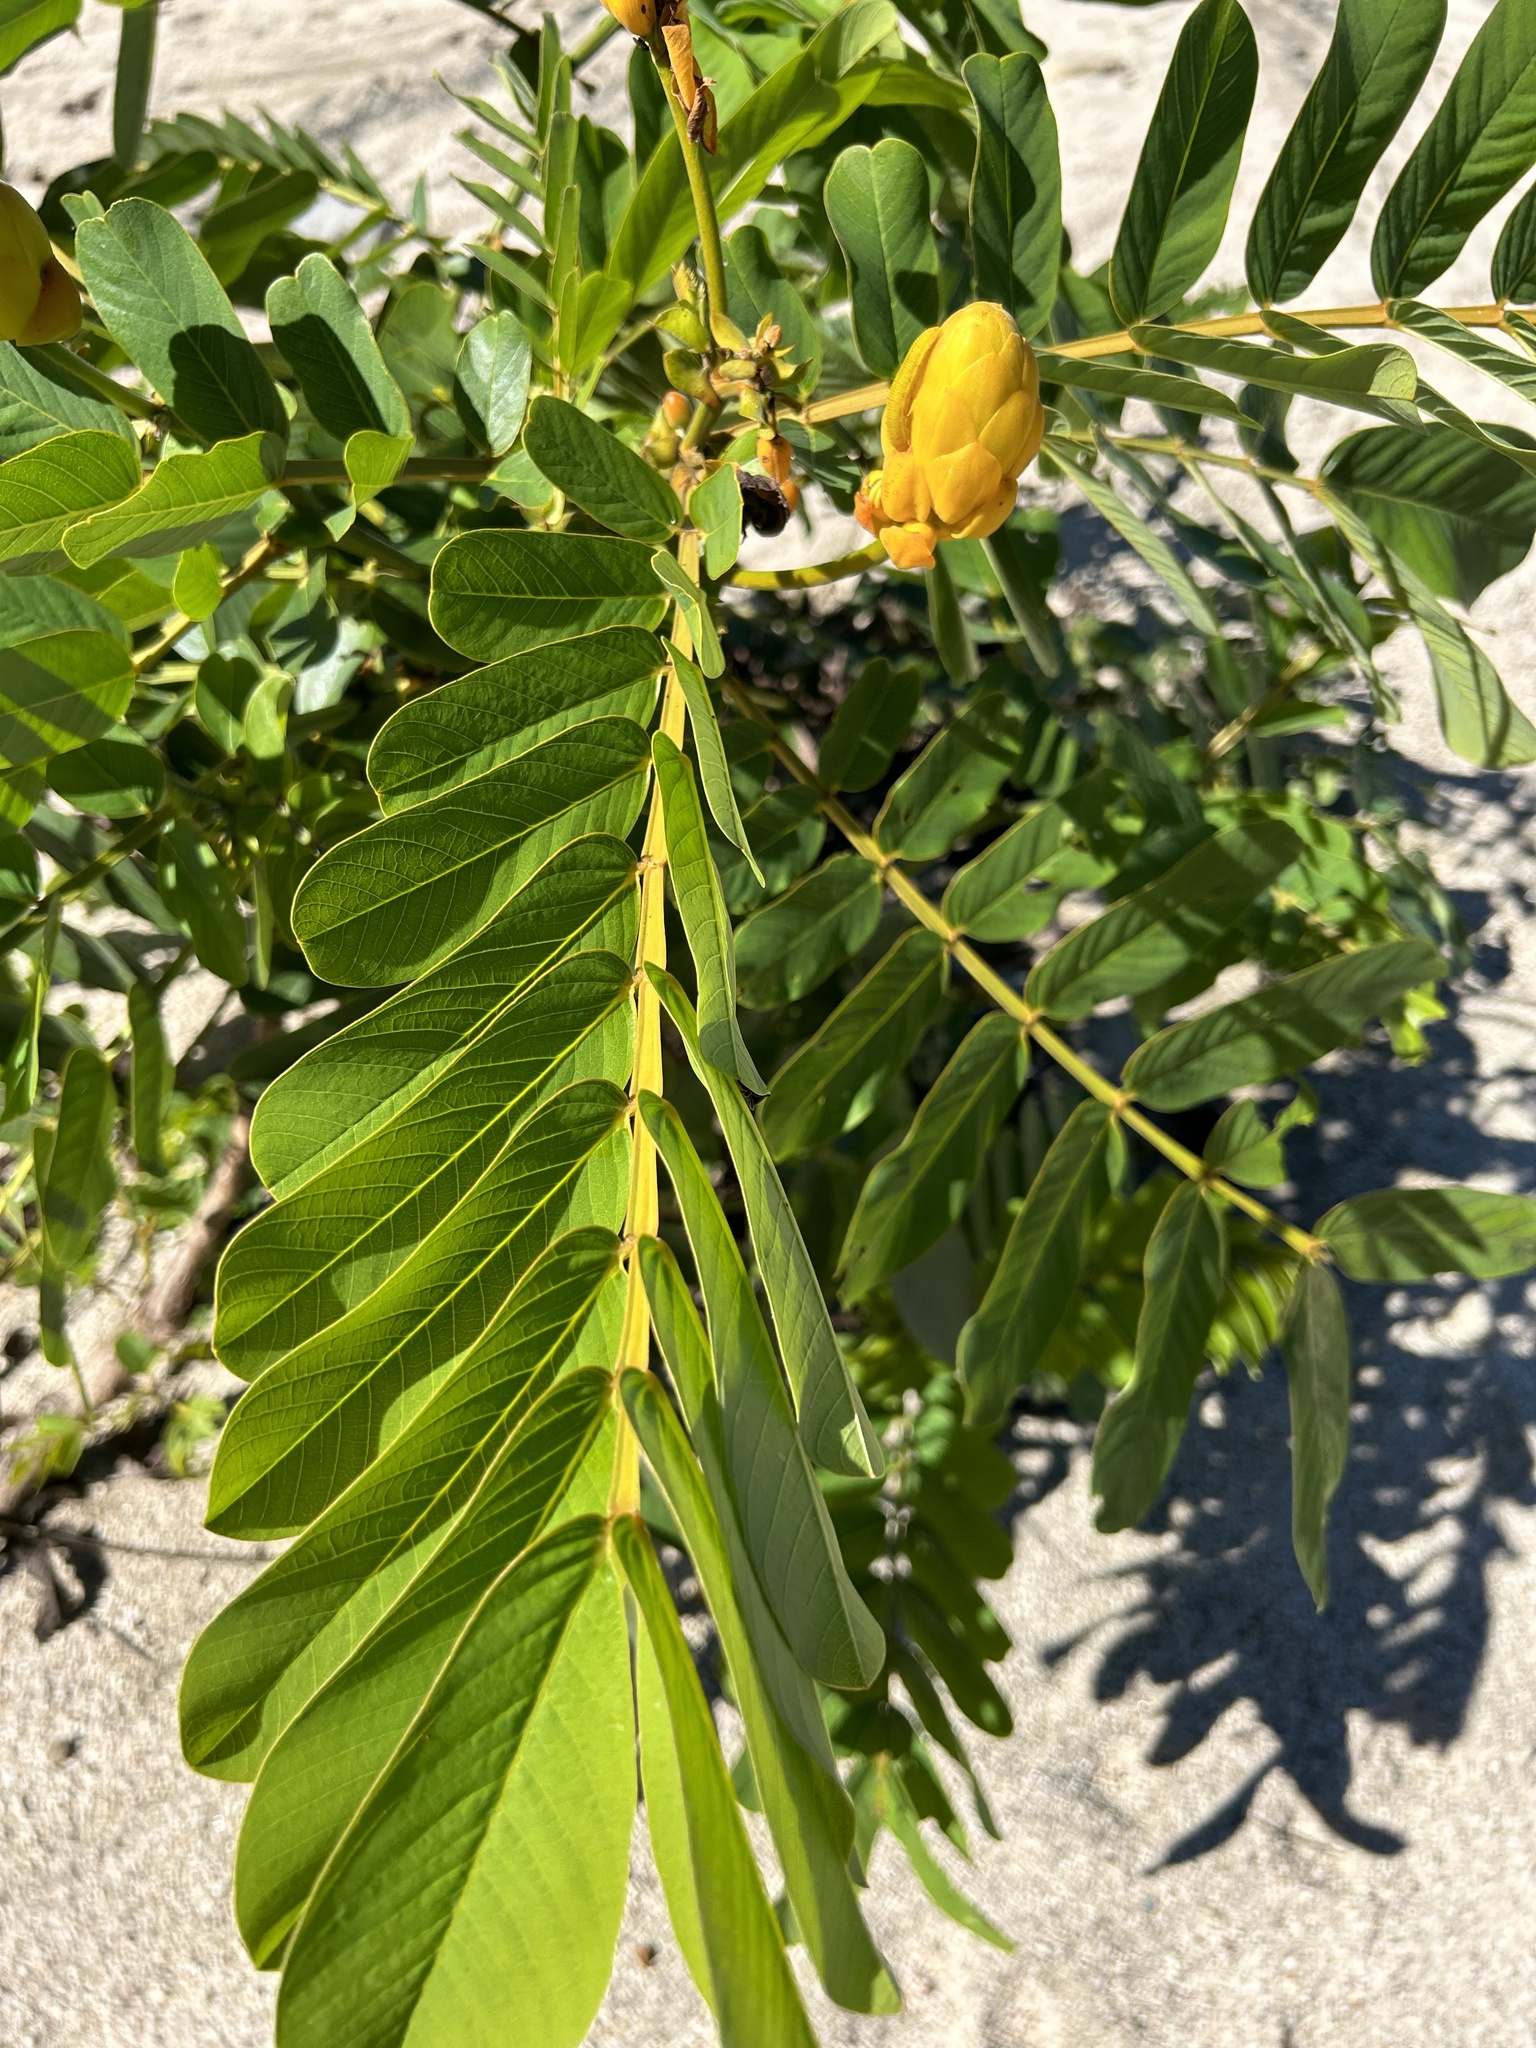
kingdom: Plantae
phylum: Tracheophyta
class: Magnoliopsida
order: Fabales
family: Fabaceae
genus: Senna
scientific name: Senna alata
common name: Emperor's candlesticks
